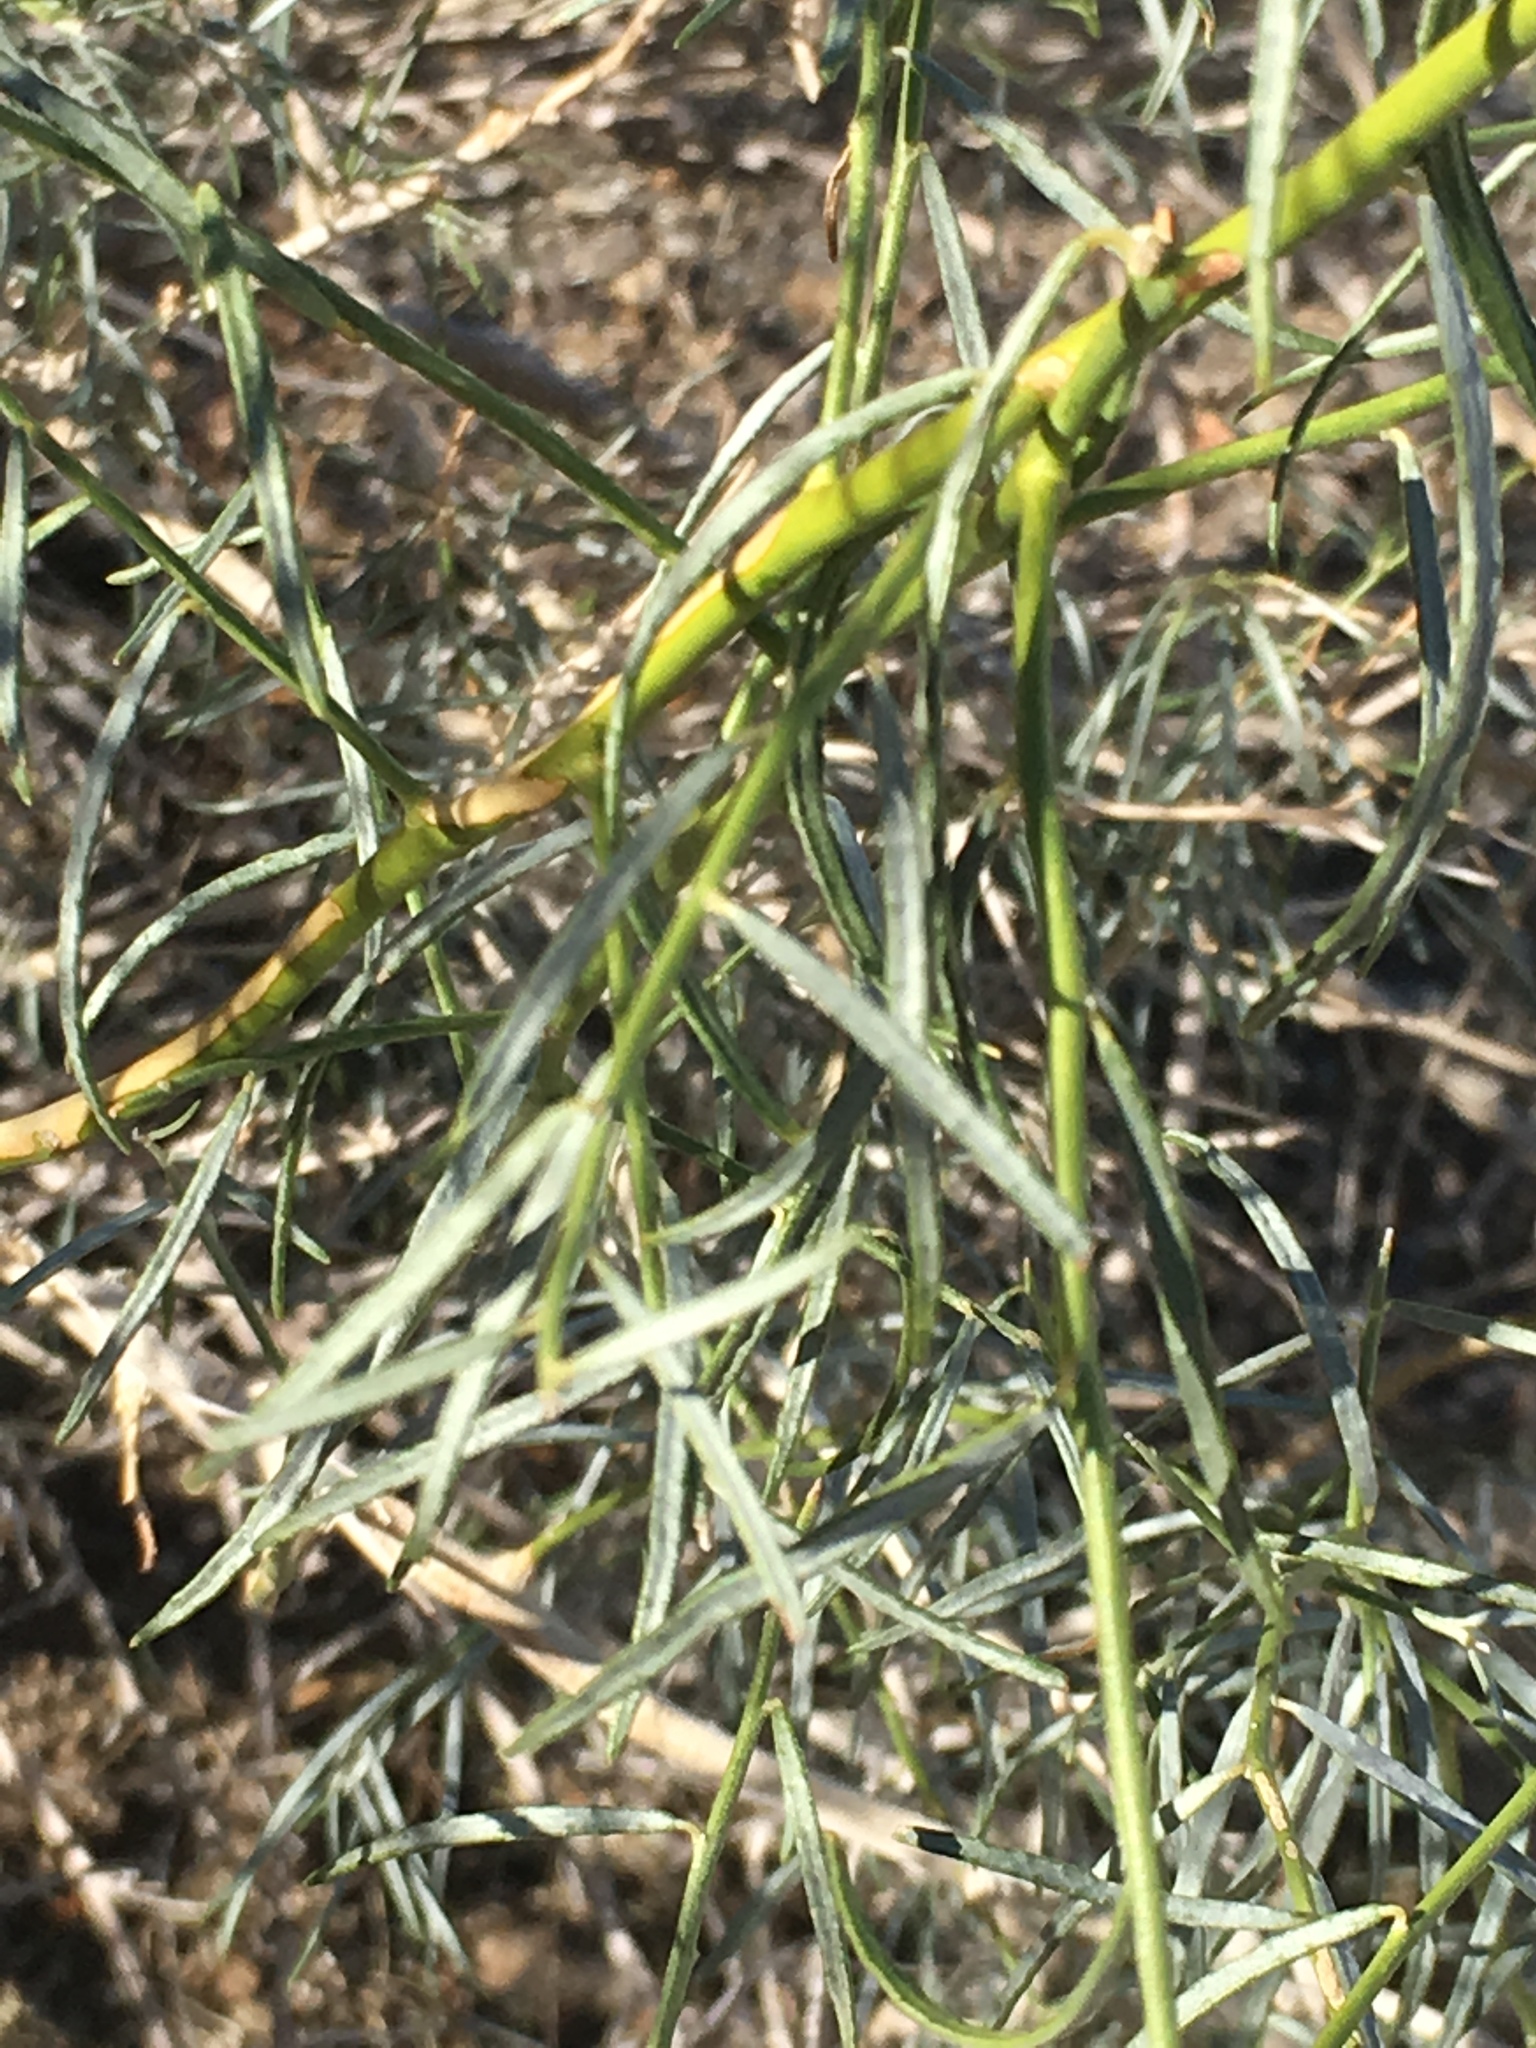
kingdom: Plantae
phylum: Tracheophyta
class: Magnoliopsida
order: Fabales
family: Fabaceae
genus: Psorothamnus
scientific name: Psorothamnus schottii
